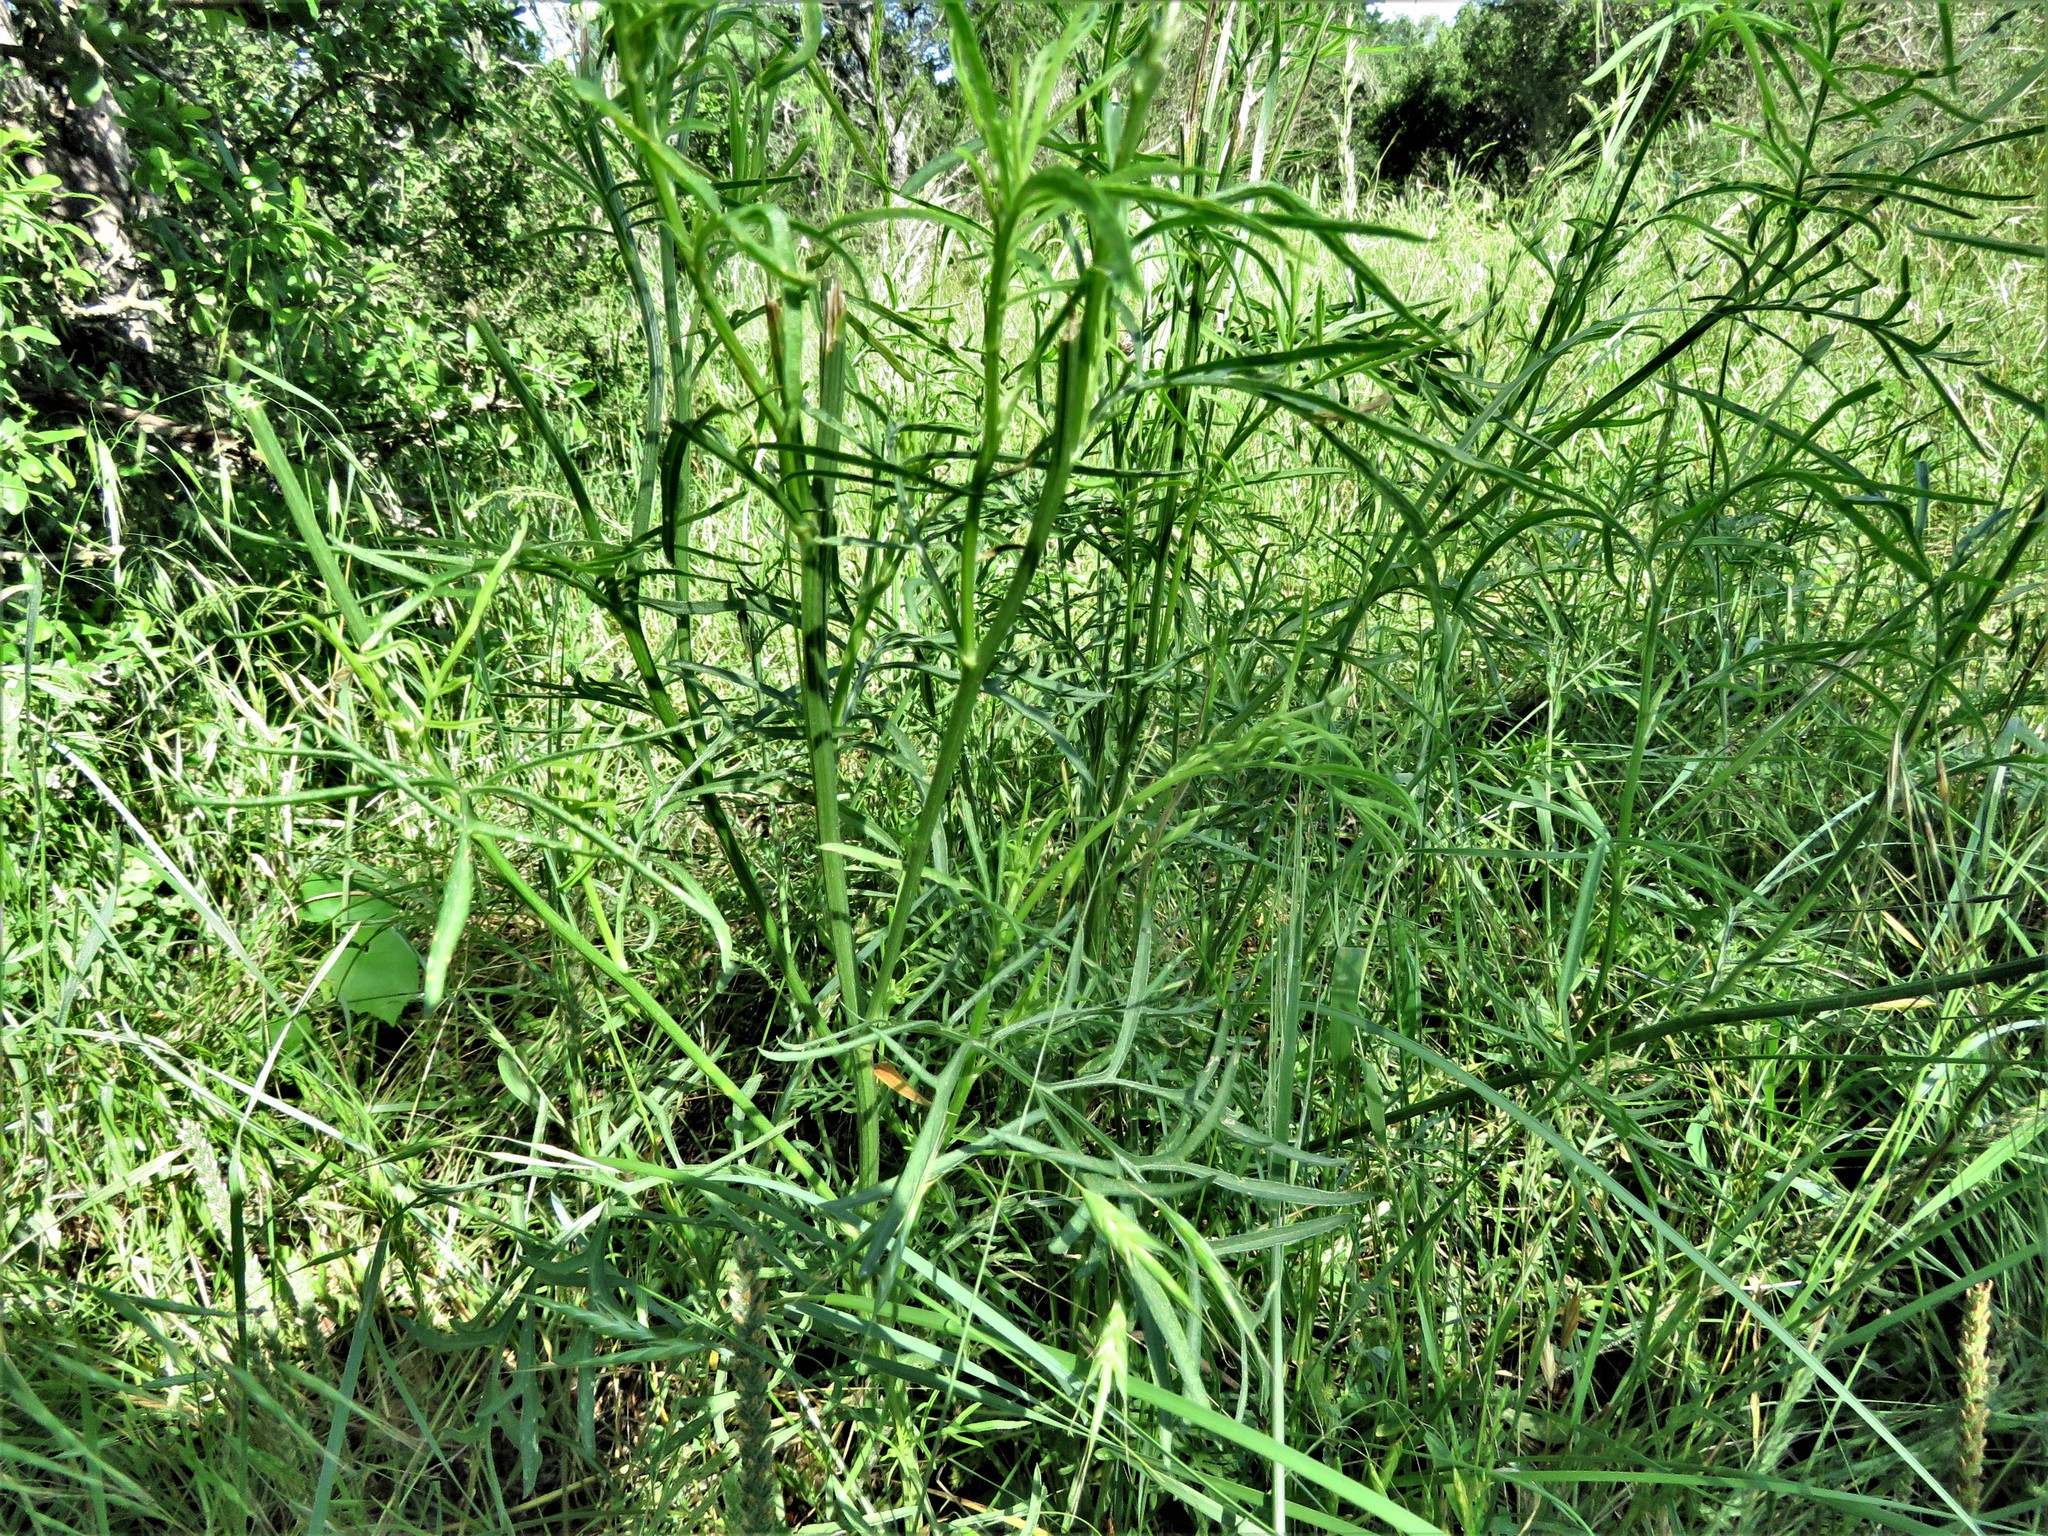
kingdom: Plantae
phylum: Tracheophyta
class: Magnoliopsida
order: Asterales
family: Asteraceae
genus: Ratibida
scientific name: Ratibida columnifera
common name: Prairie coneflower
